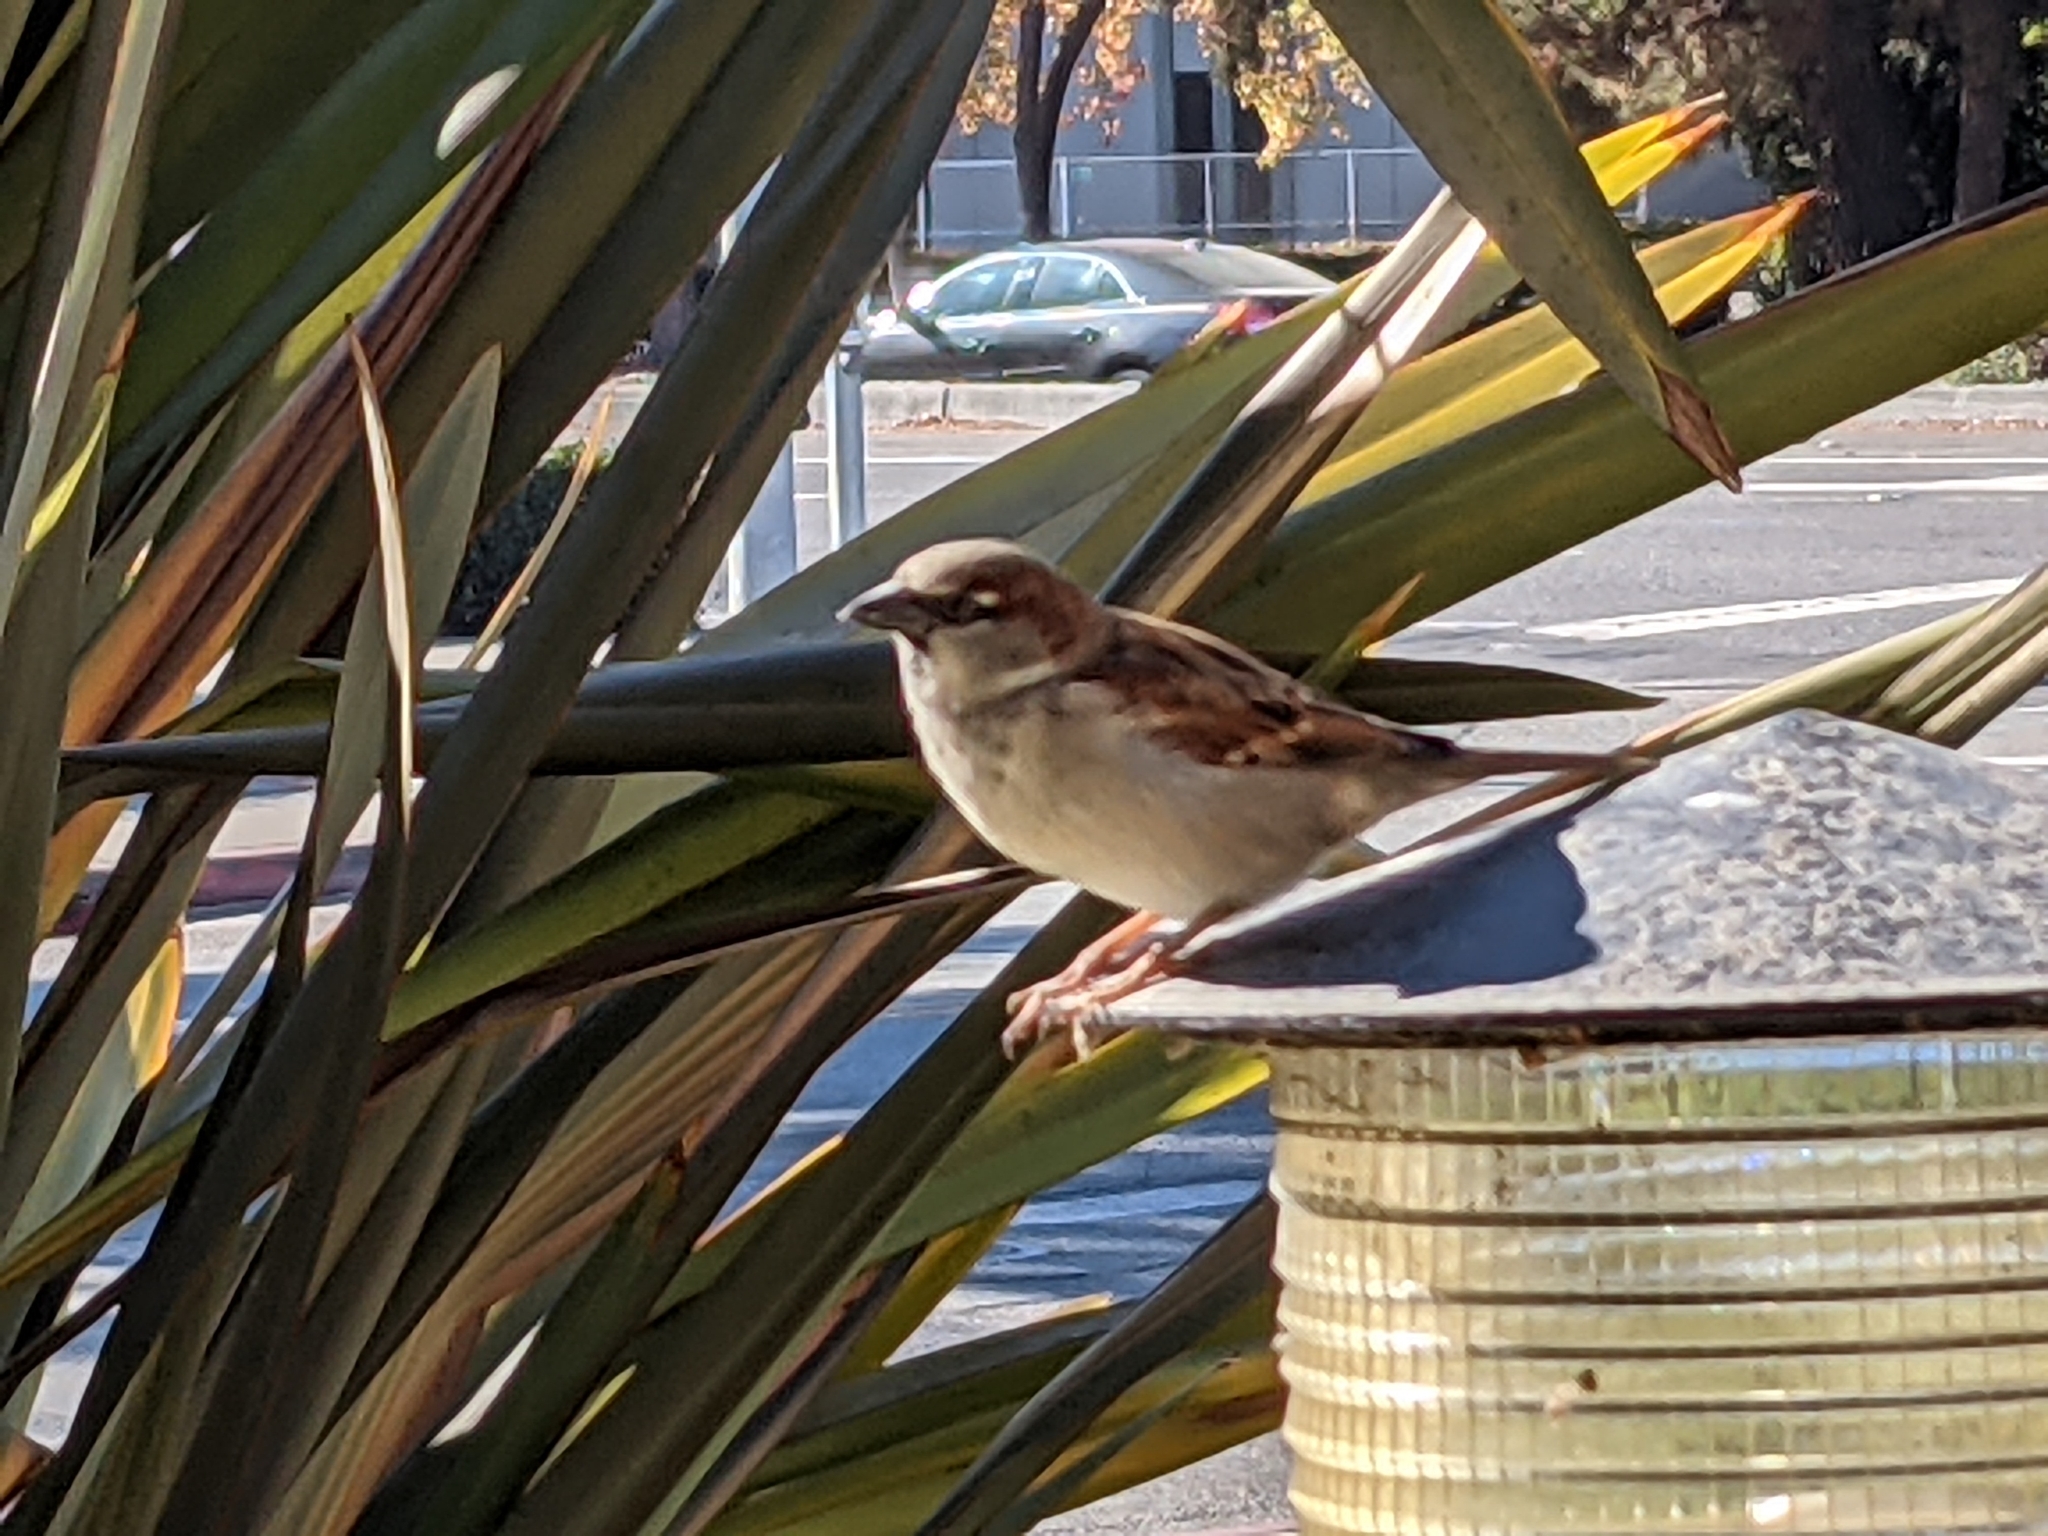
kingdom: Animalia
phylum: Chordata
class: Aves
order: Passeriformes
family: Passeridae
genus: Passer
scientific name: Passer domesticus
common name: House sparrow
